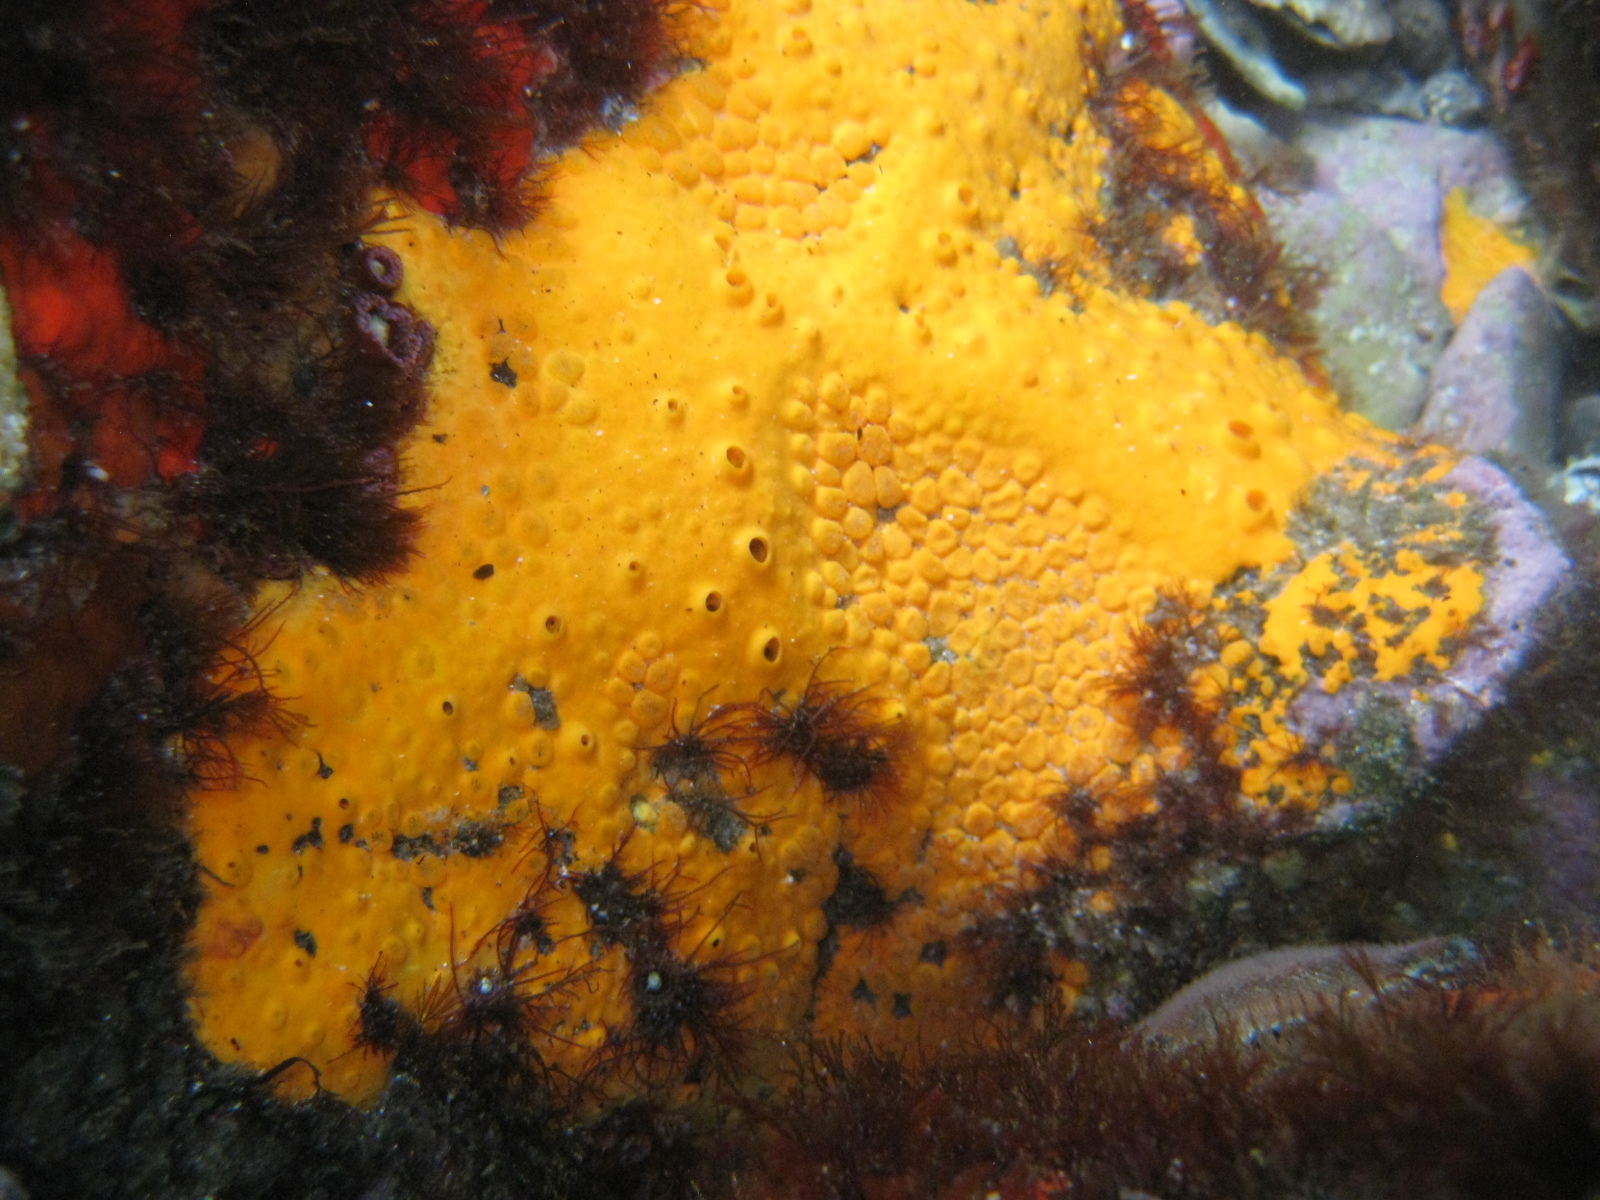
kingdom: Animalia
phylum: Porifera
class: Demospongiae
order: Clionaida
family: Clionaidae
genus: Cliona
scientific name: Cliona celata
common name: Boring sponge
